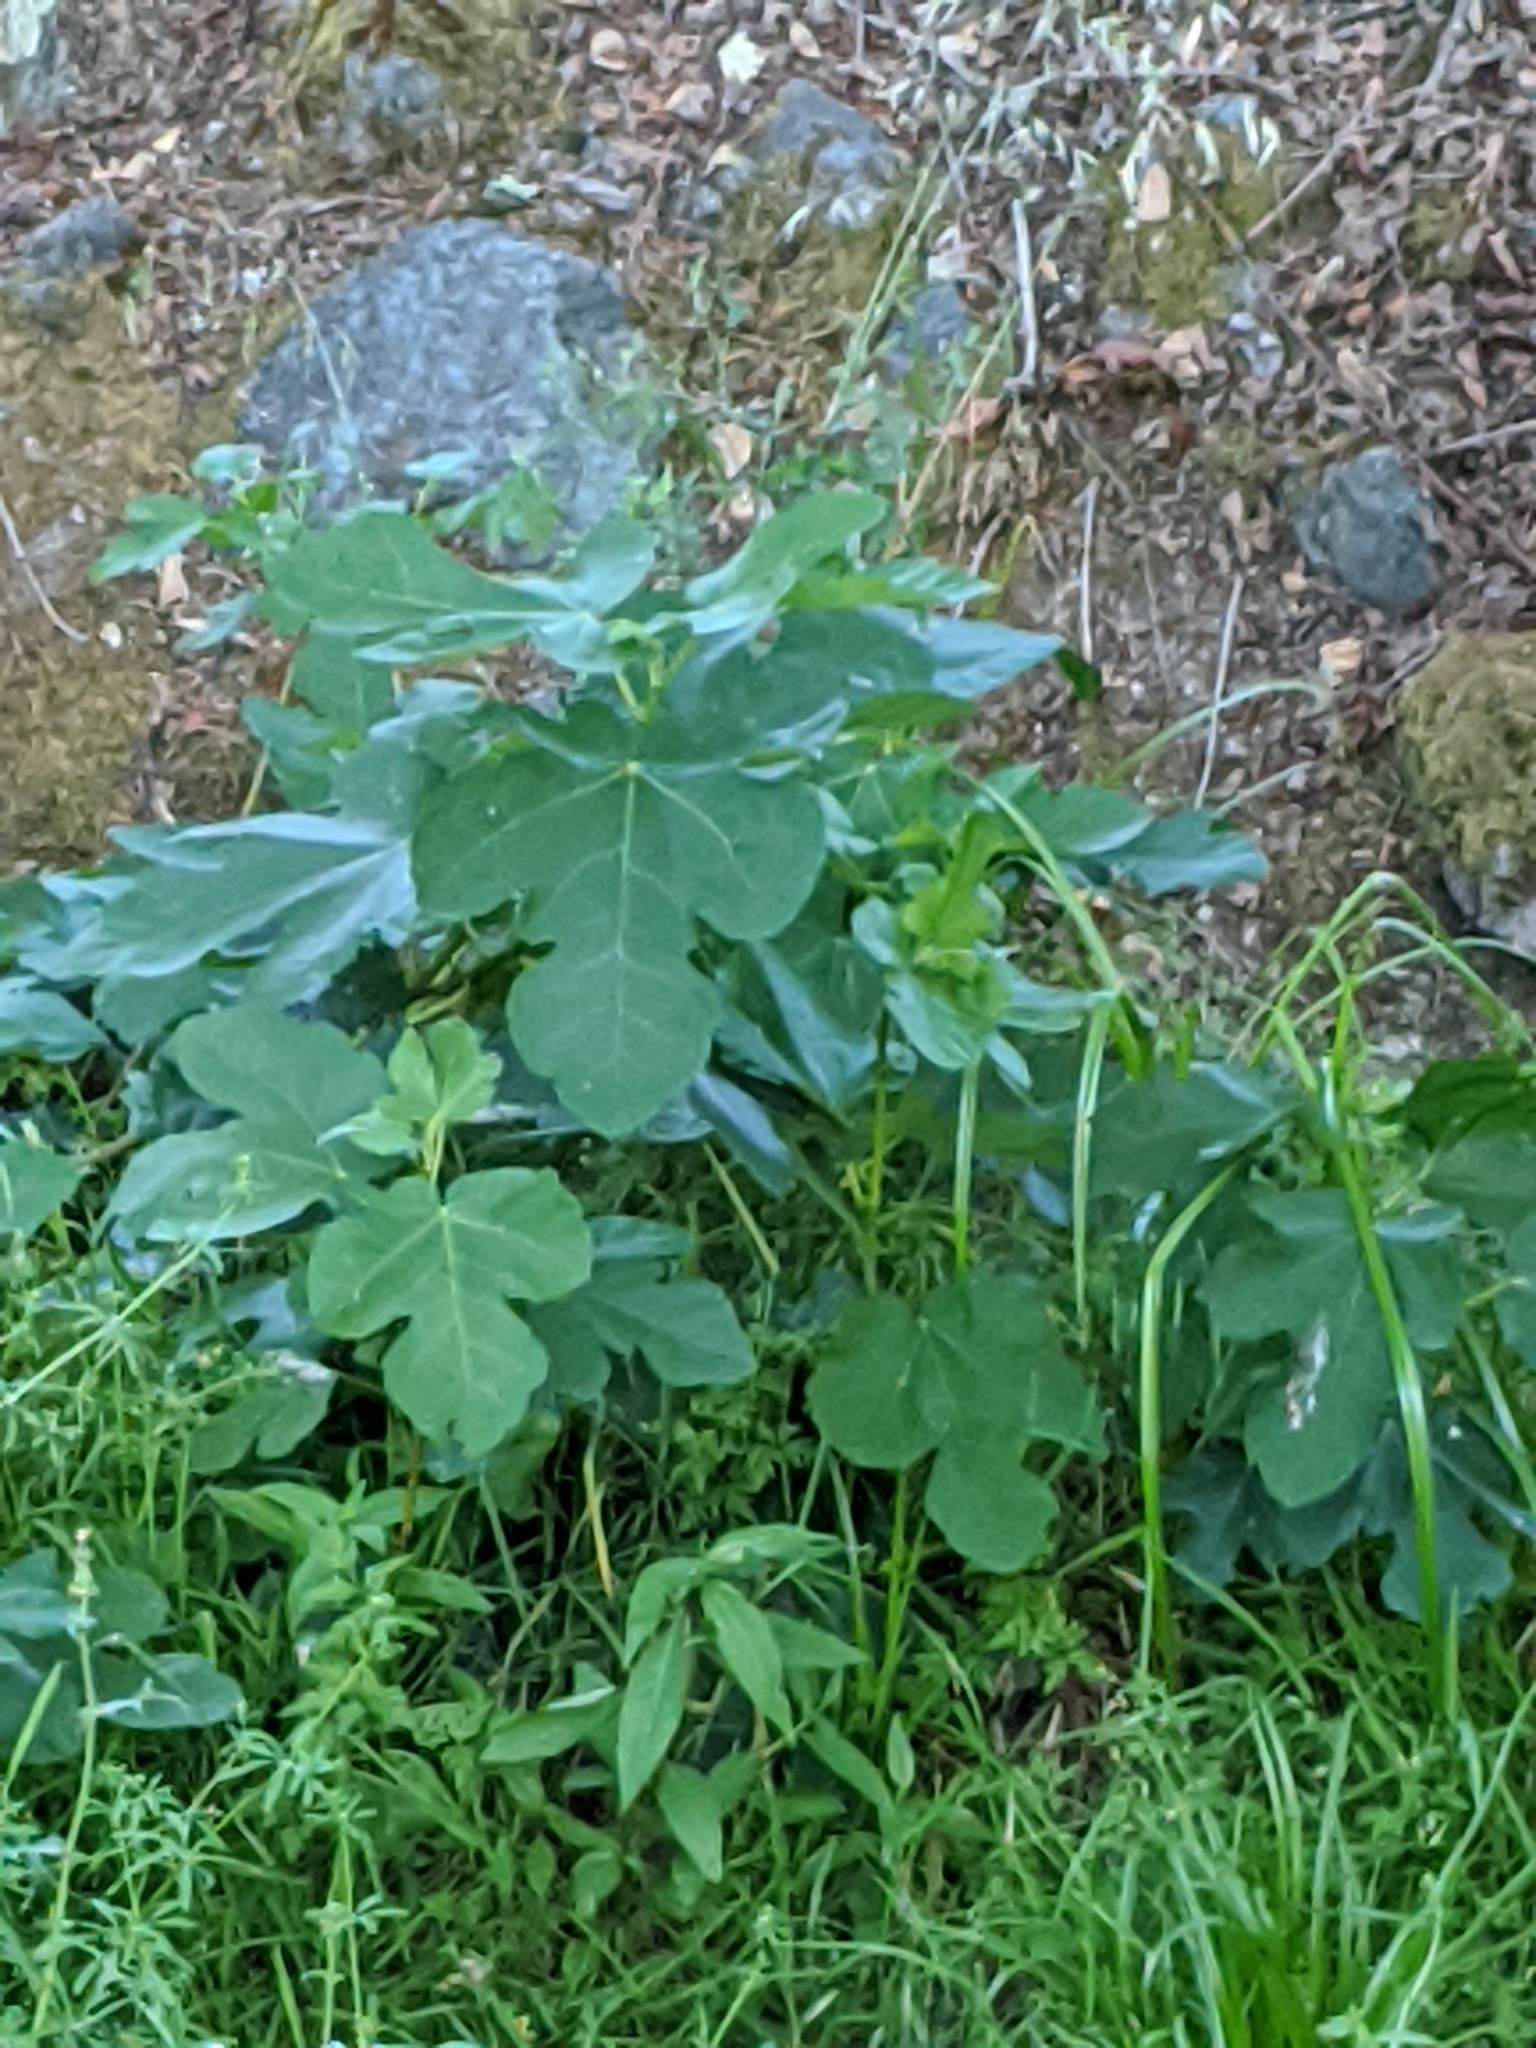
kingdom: Plantae
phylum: Tracheophyta
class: Magnoliopsida
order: Rosales
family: Moraceae
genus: Ficus
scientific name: Ficus carica
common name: Fig
